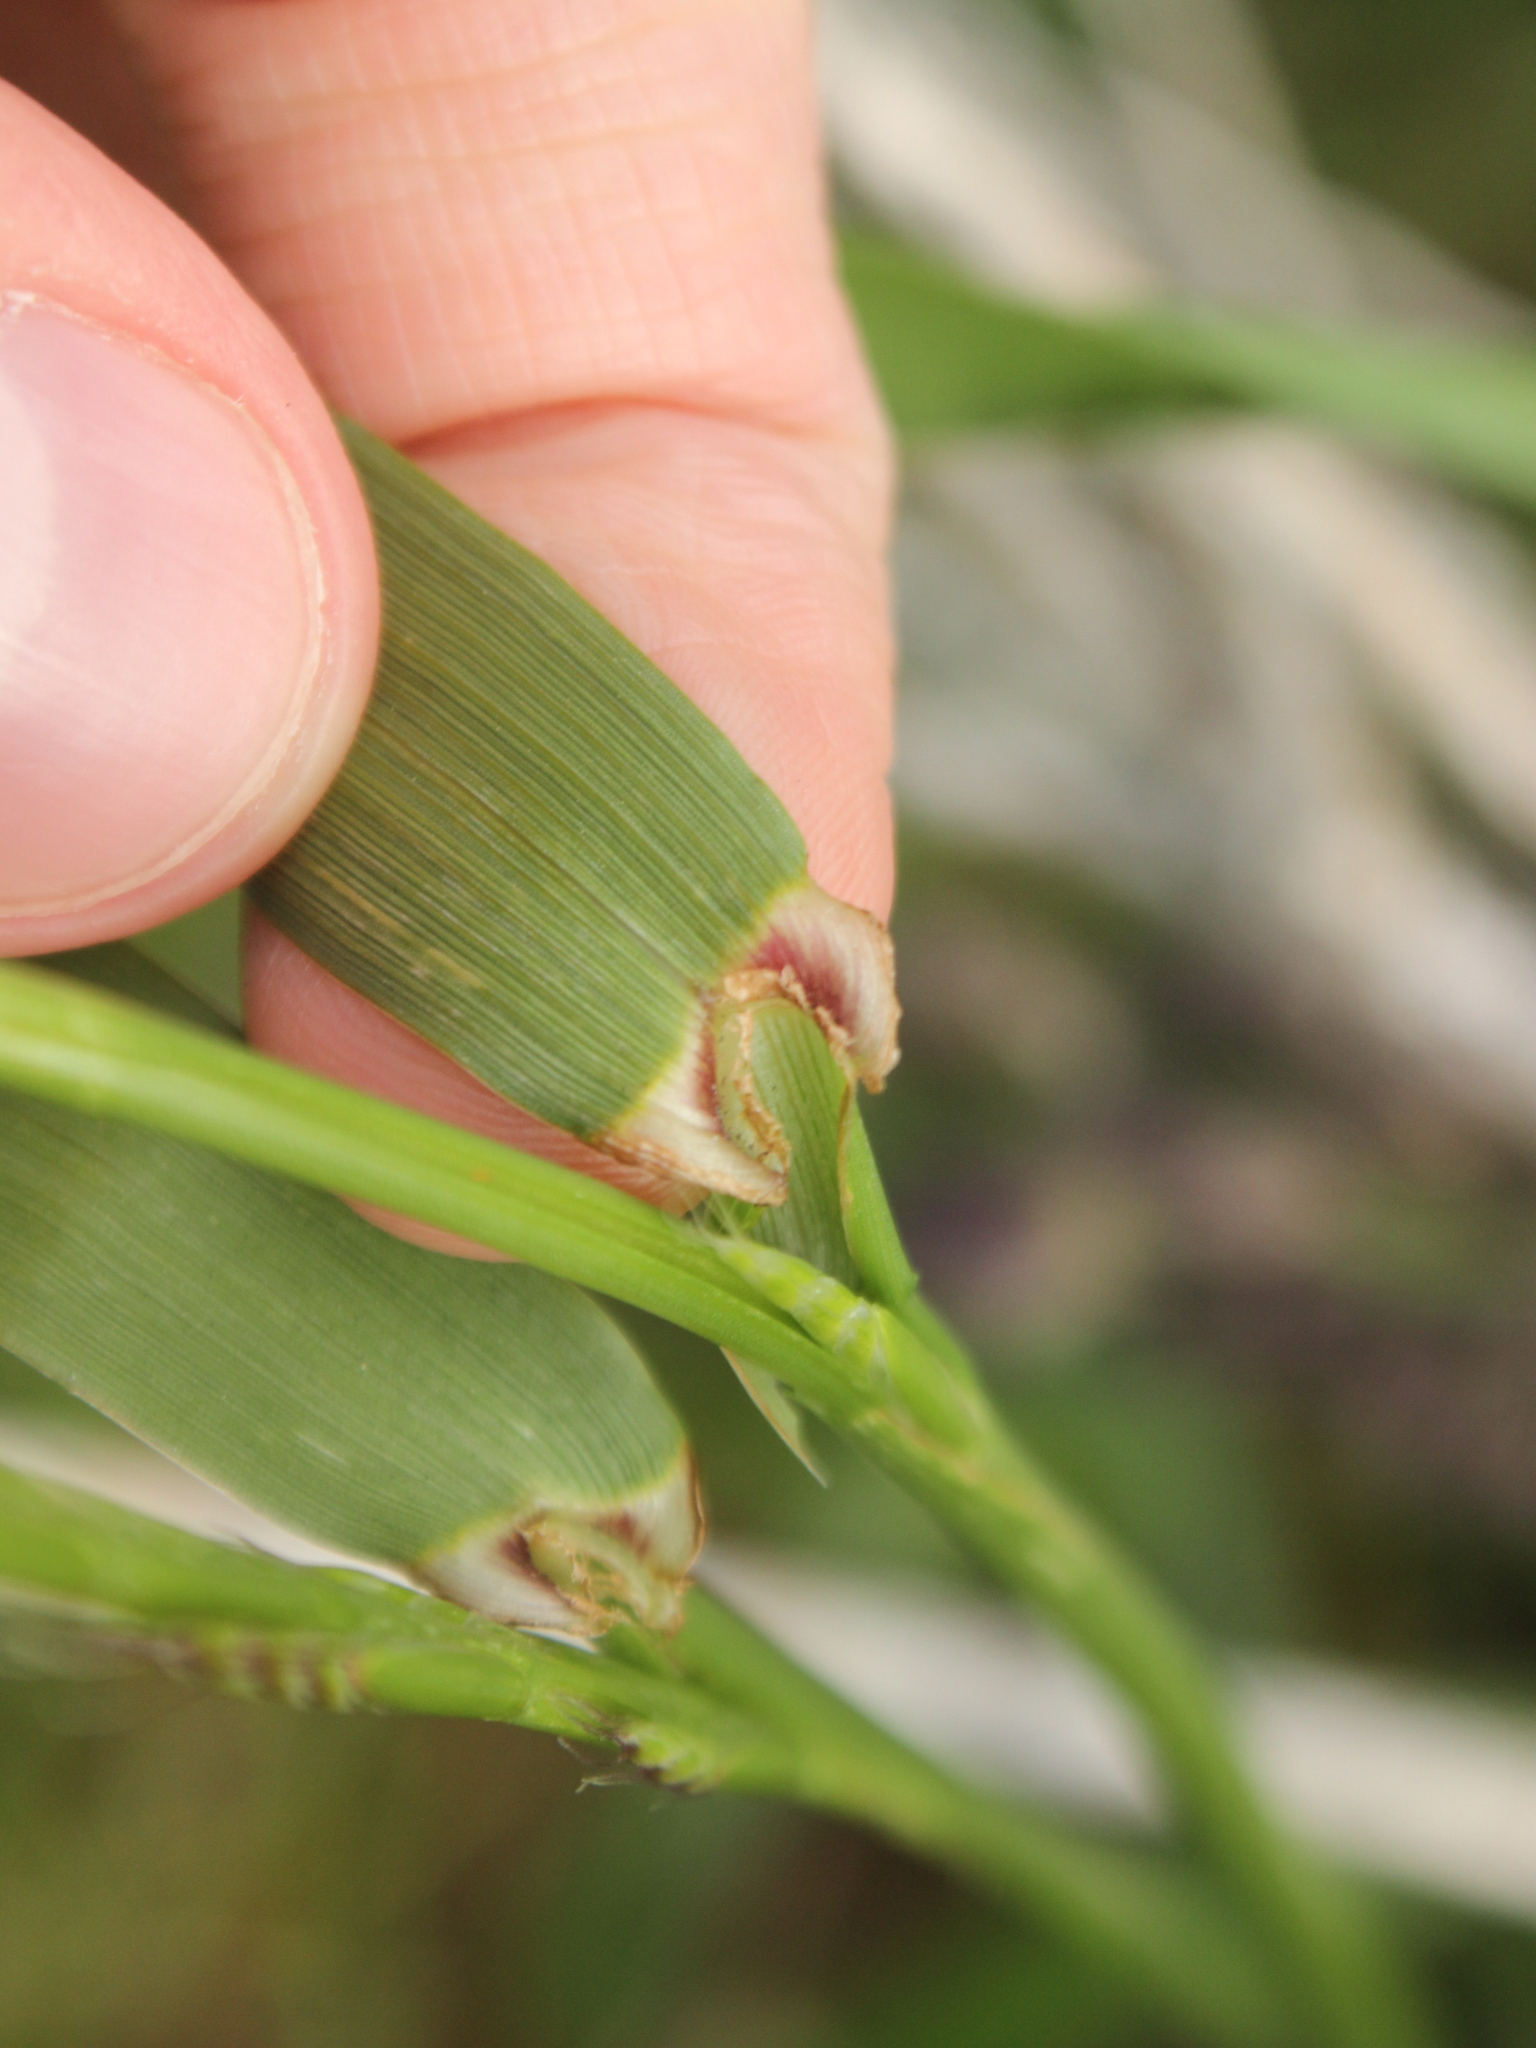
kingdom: Plantae
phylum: Tracheophyta
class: Liliopsida
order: Poales
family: Poaceae
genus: Lolium
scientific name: Lolium multiflorum
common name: Annual ryegrass
